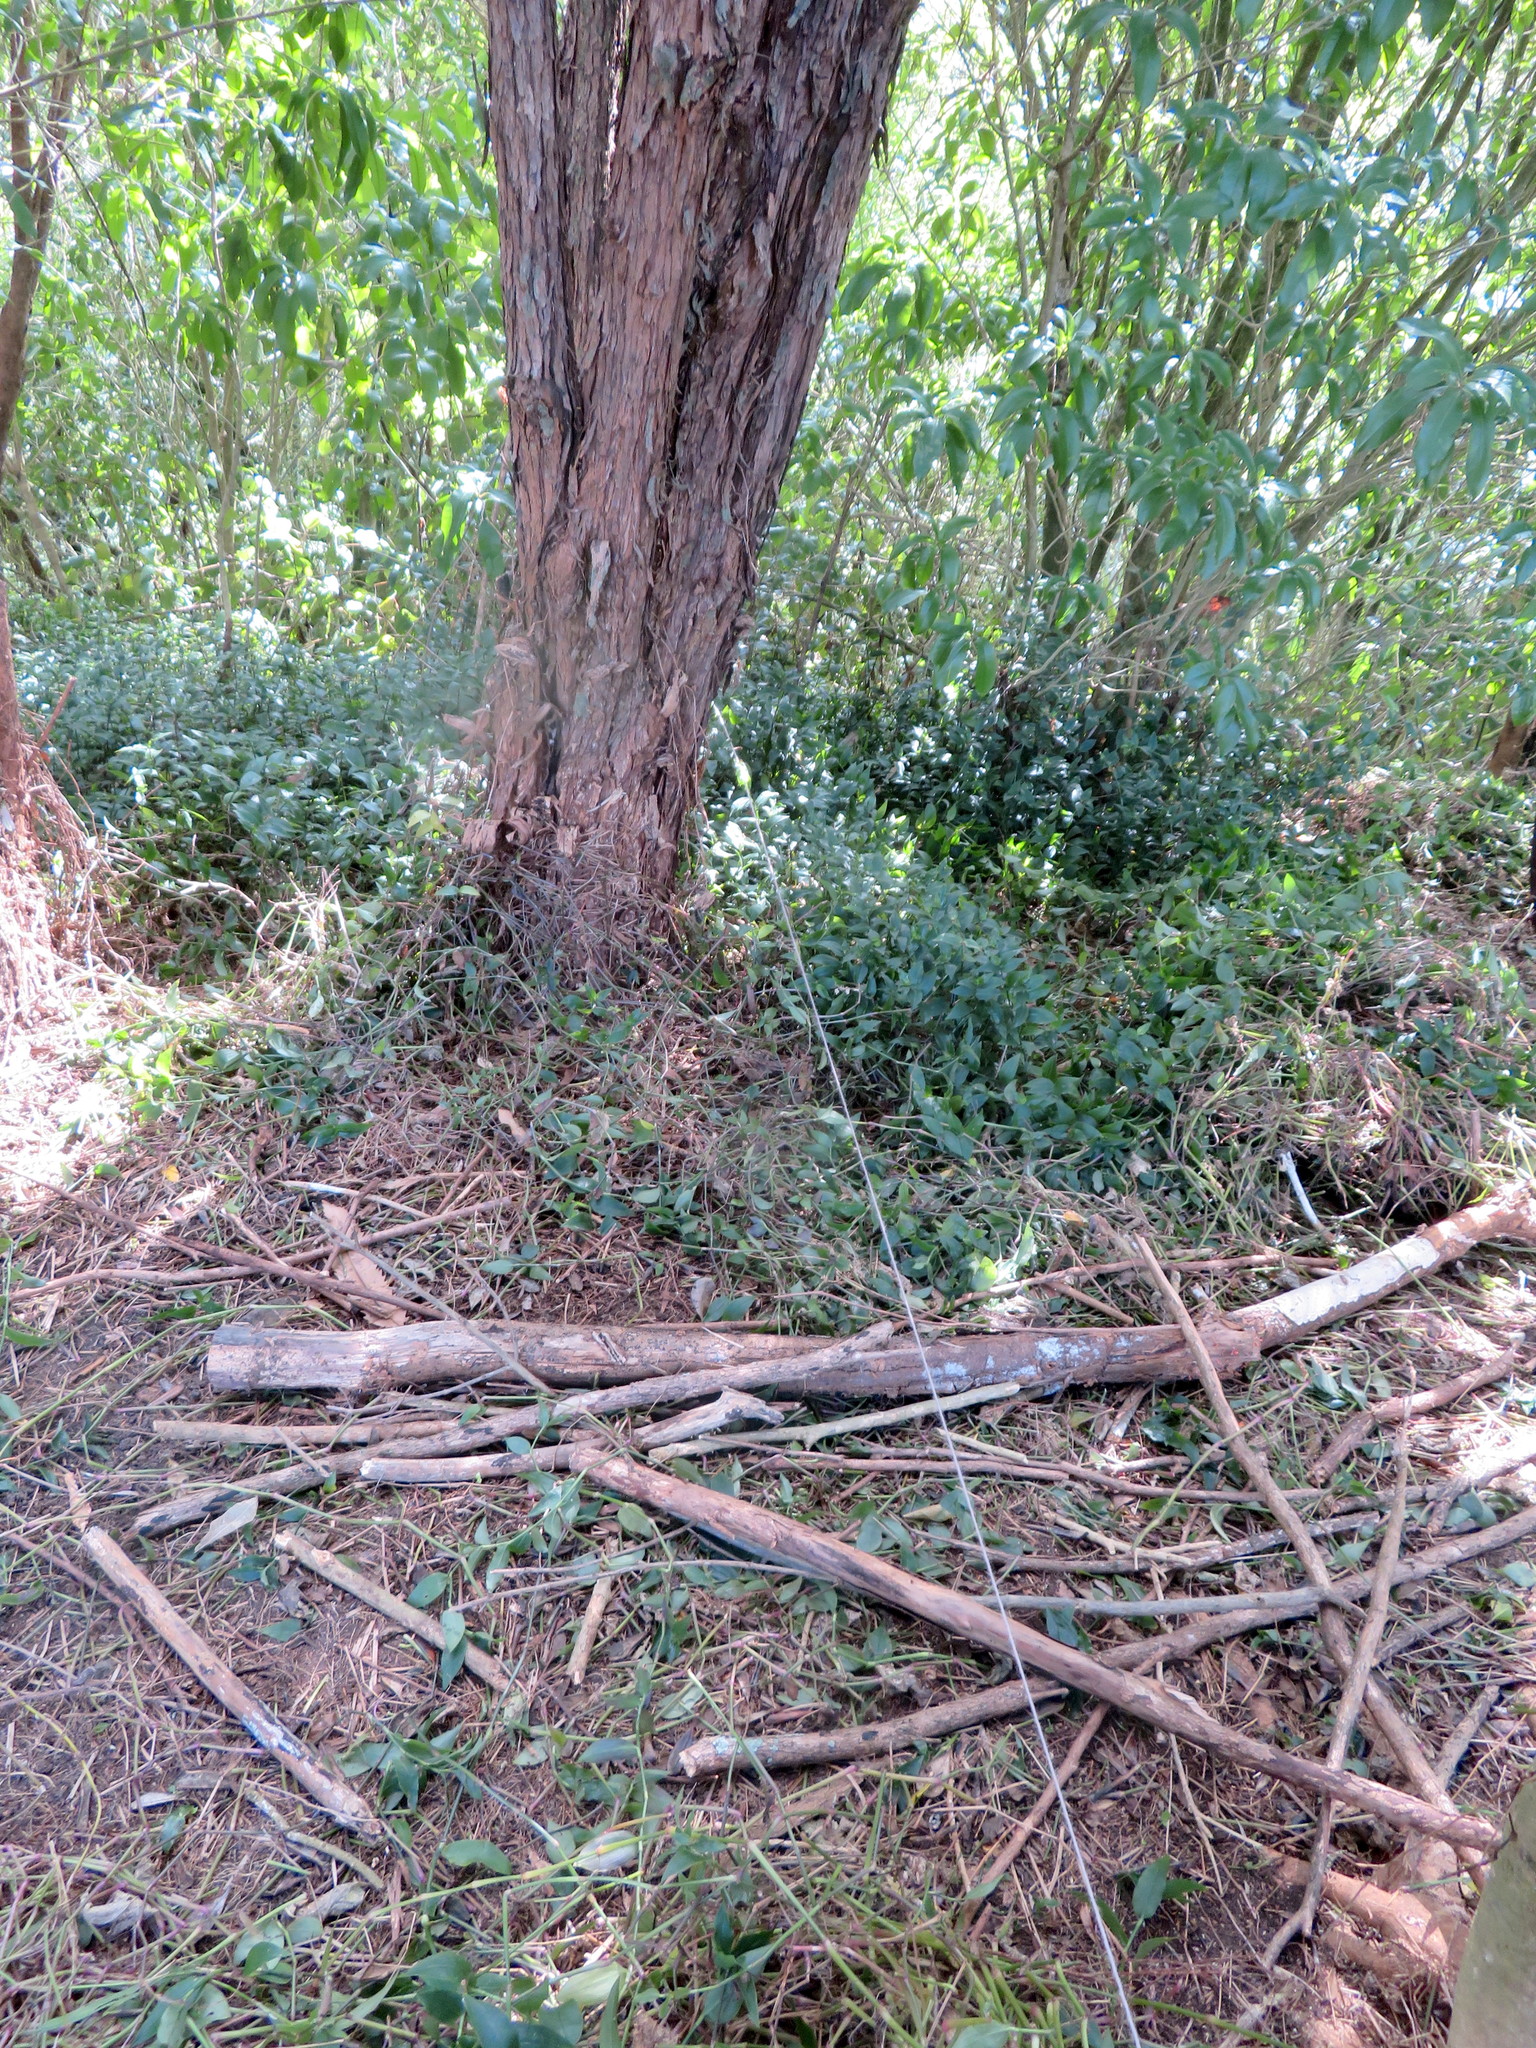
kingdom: Plantae
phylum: Tracheophyta
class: Liliopsida
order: Commelinales
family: Commelinaceae
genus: Tradescantia
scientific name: Tradescantia fluminensis
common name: Wandering-jew
